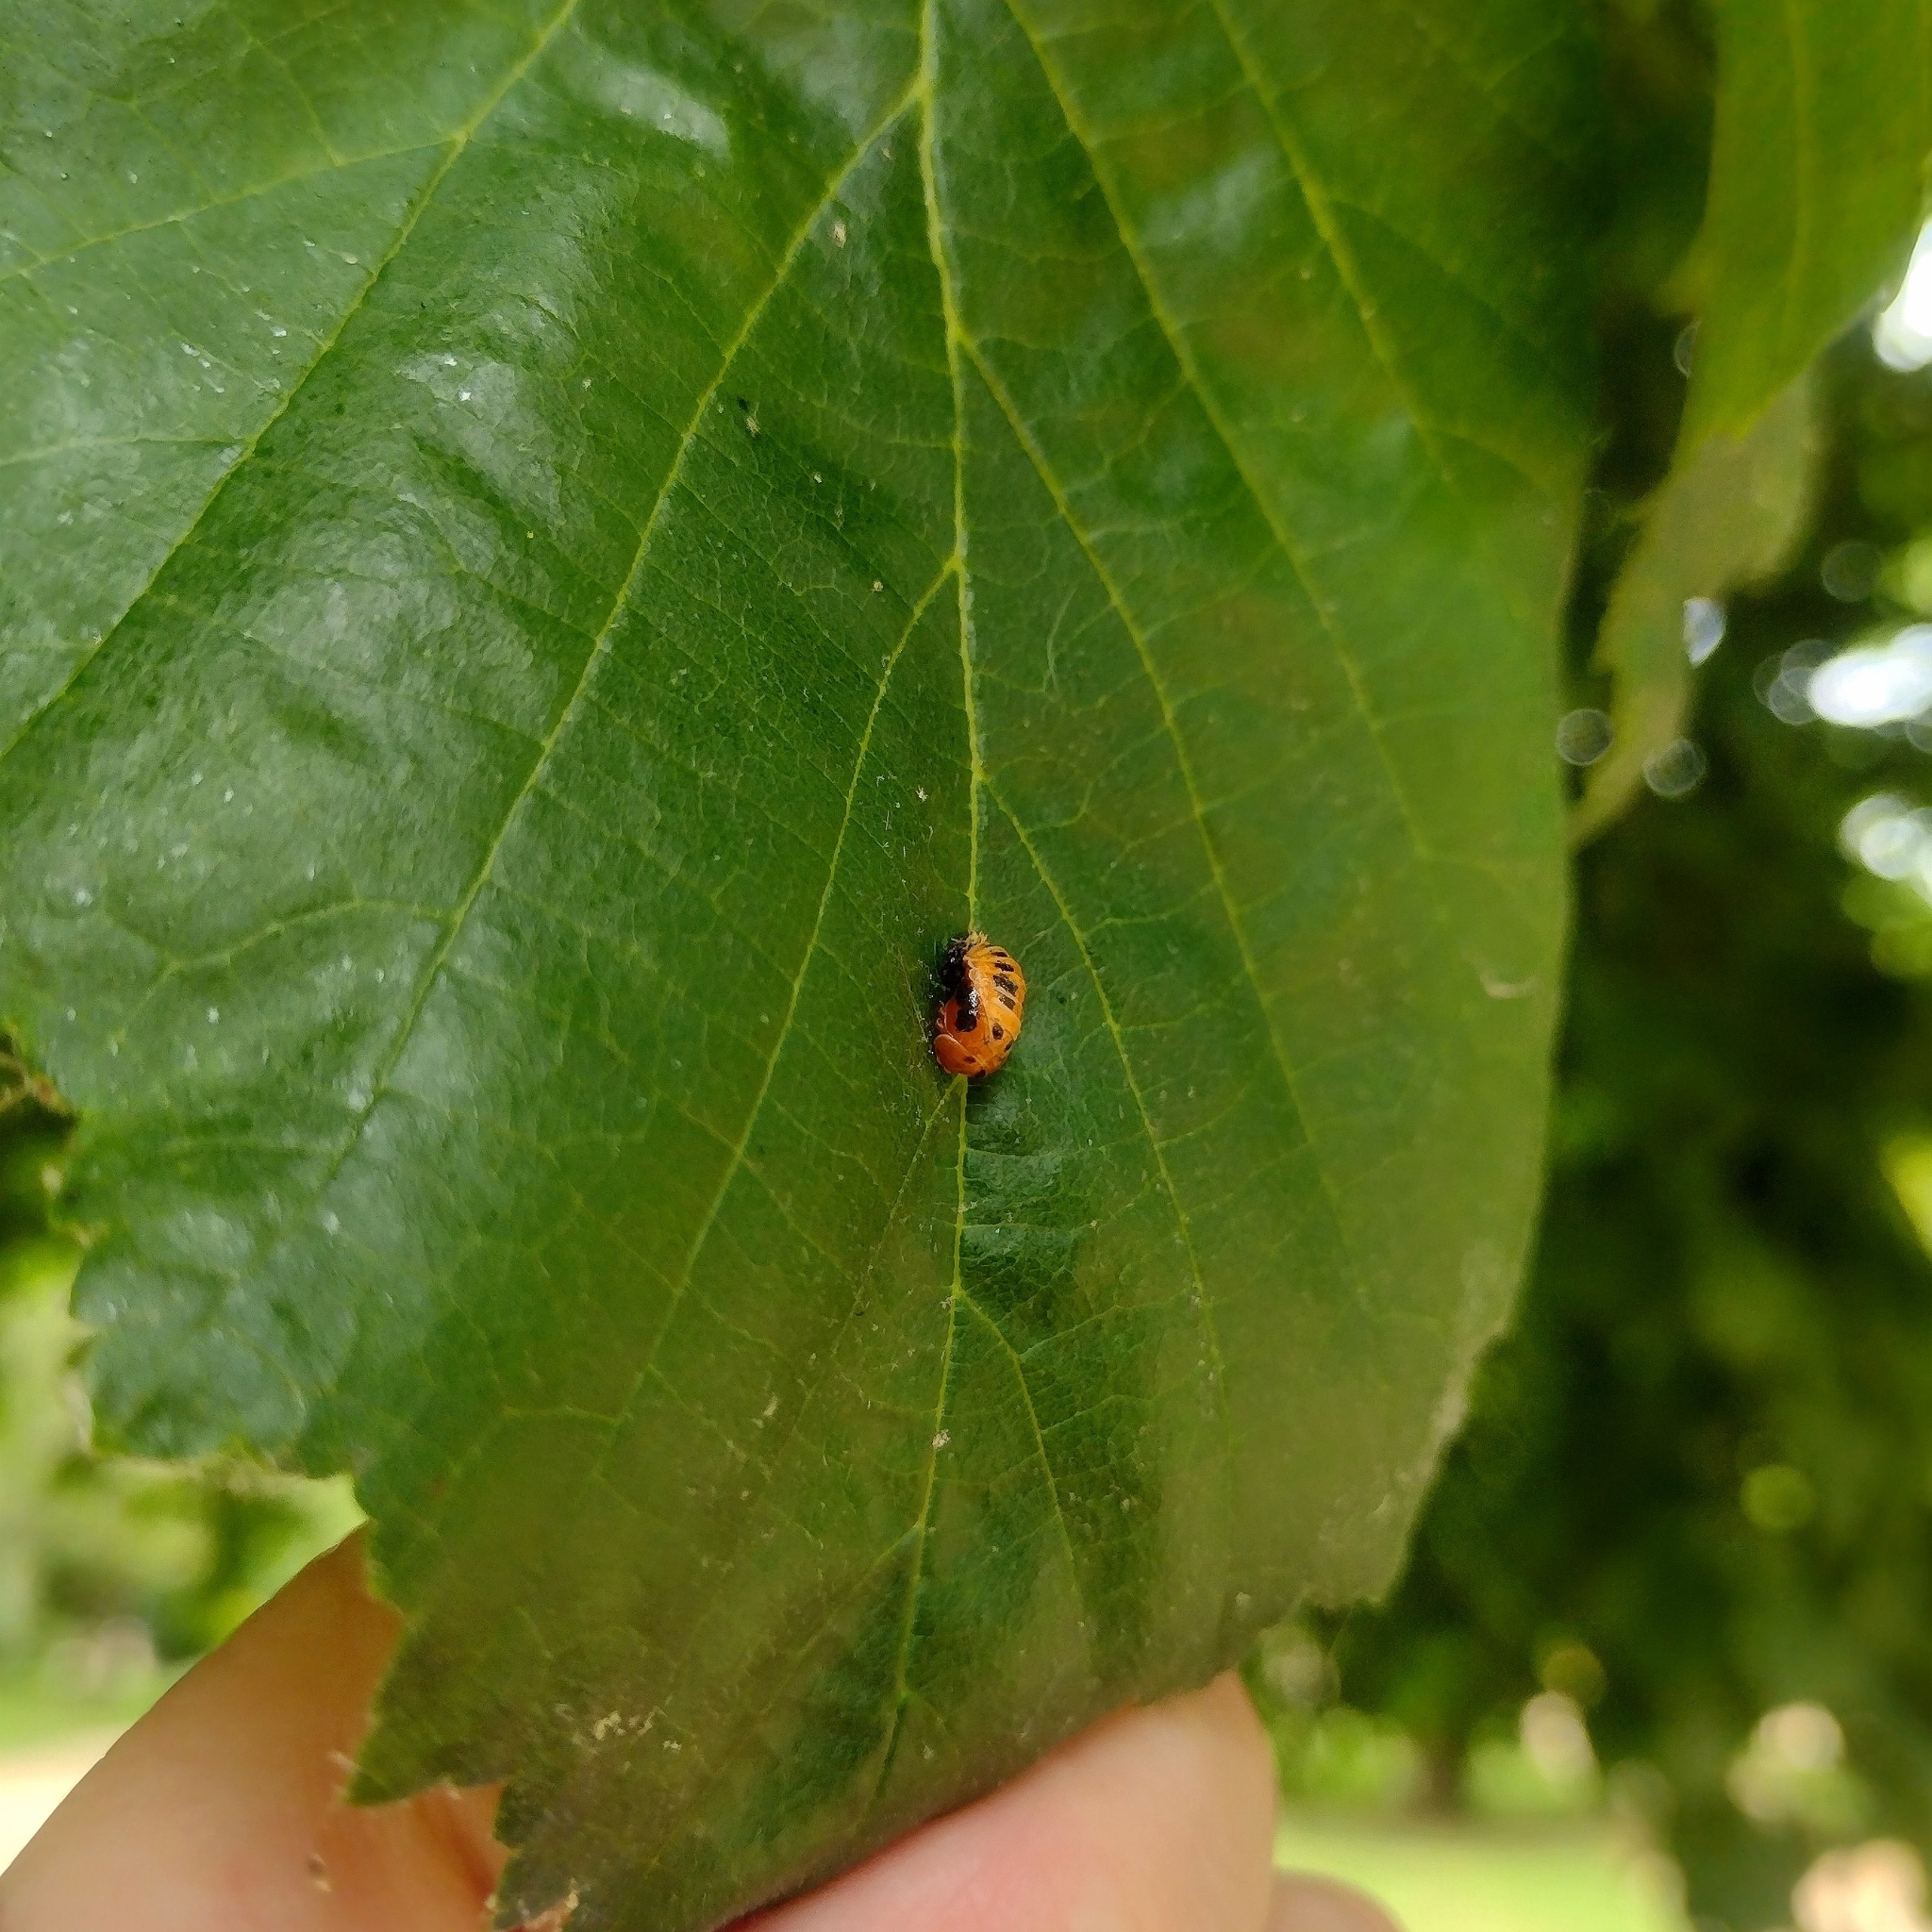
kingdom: Animalia
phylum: Arthropoda
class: Insecta
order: Coleoptera
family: Coccinellidae
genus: Harmonia
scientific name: Harmonia axyridis
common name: Harlequin ladybird
